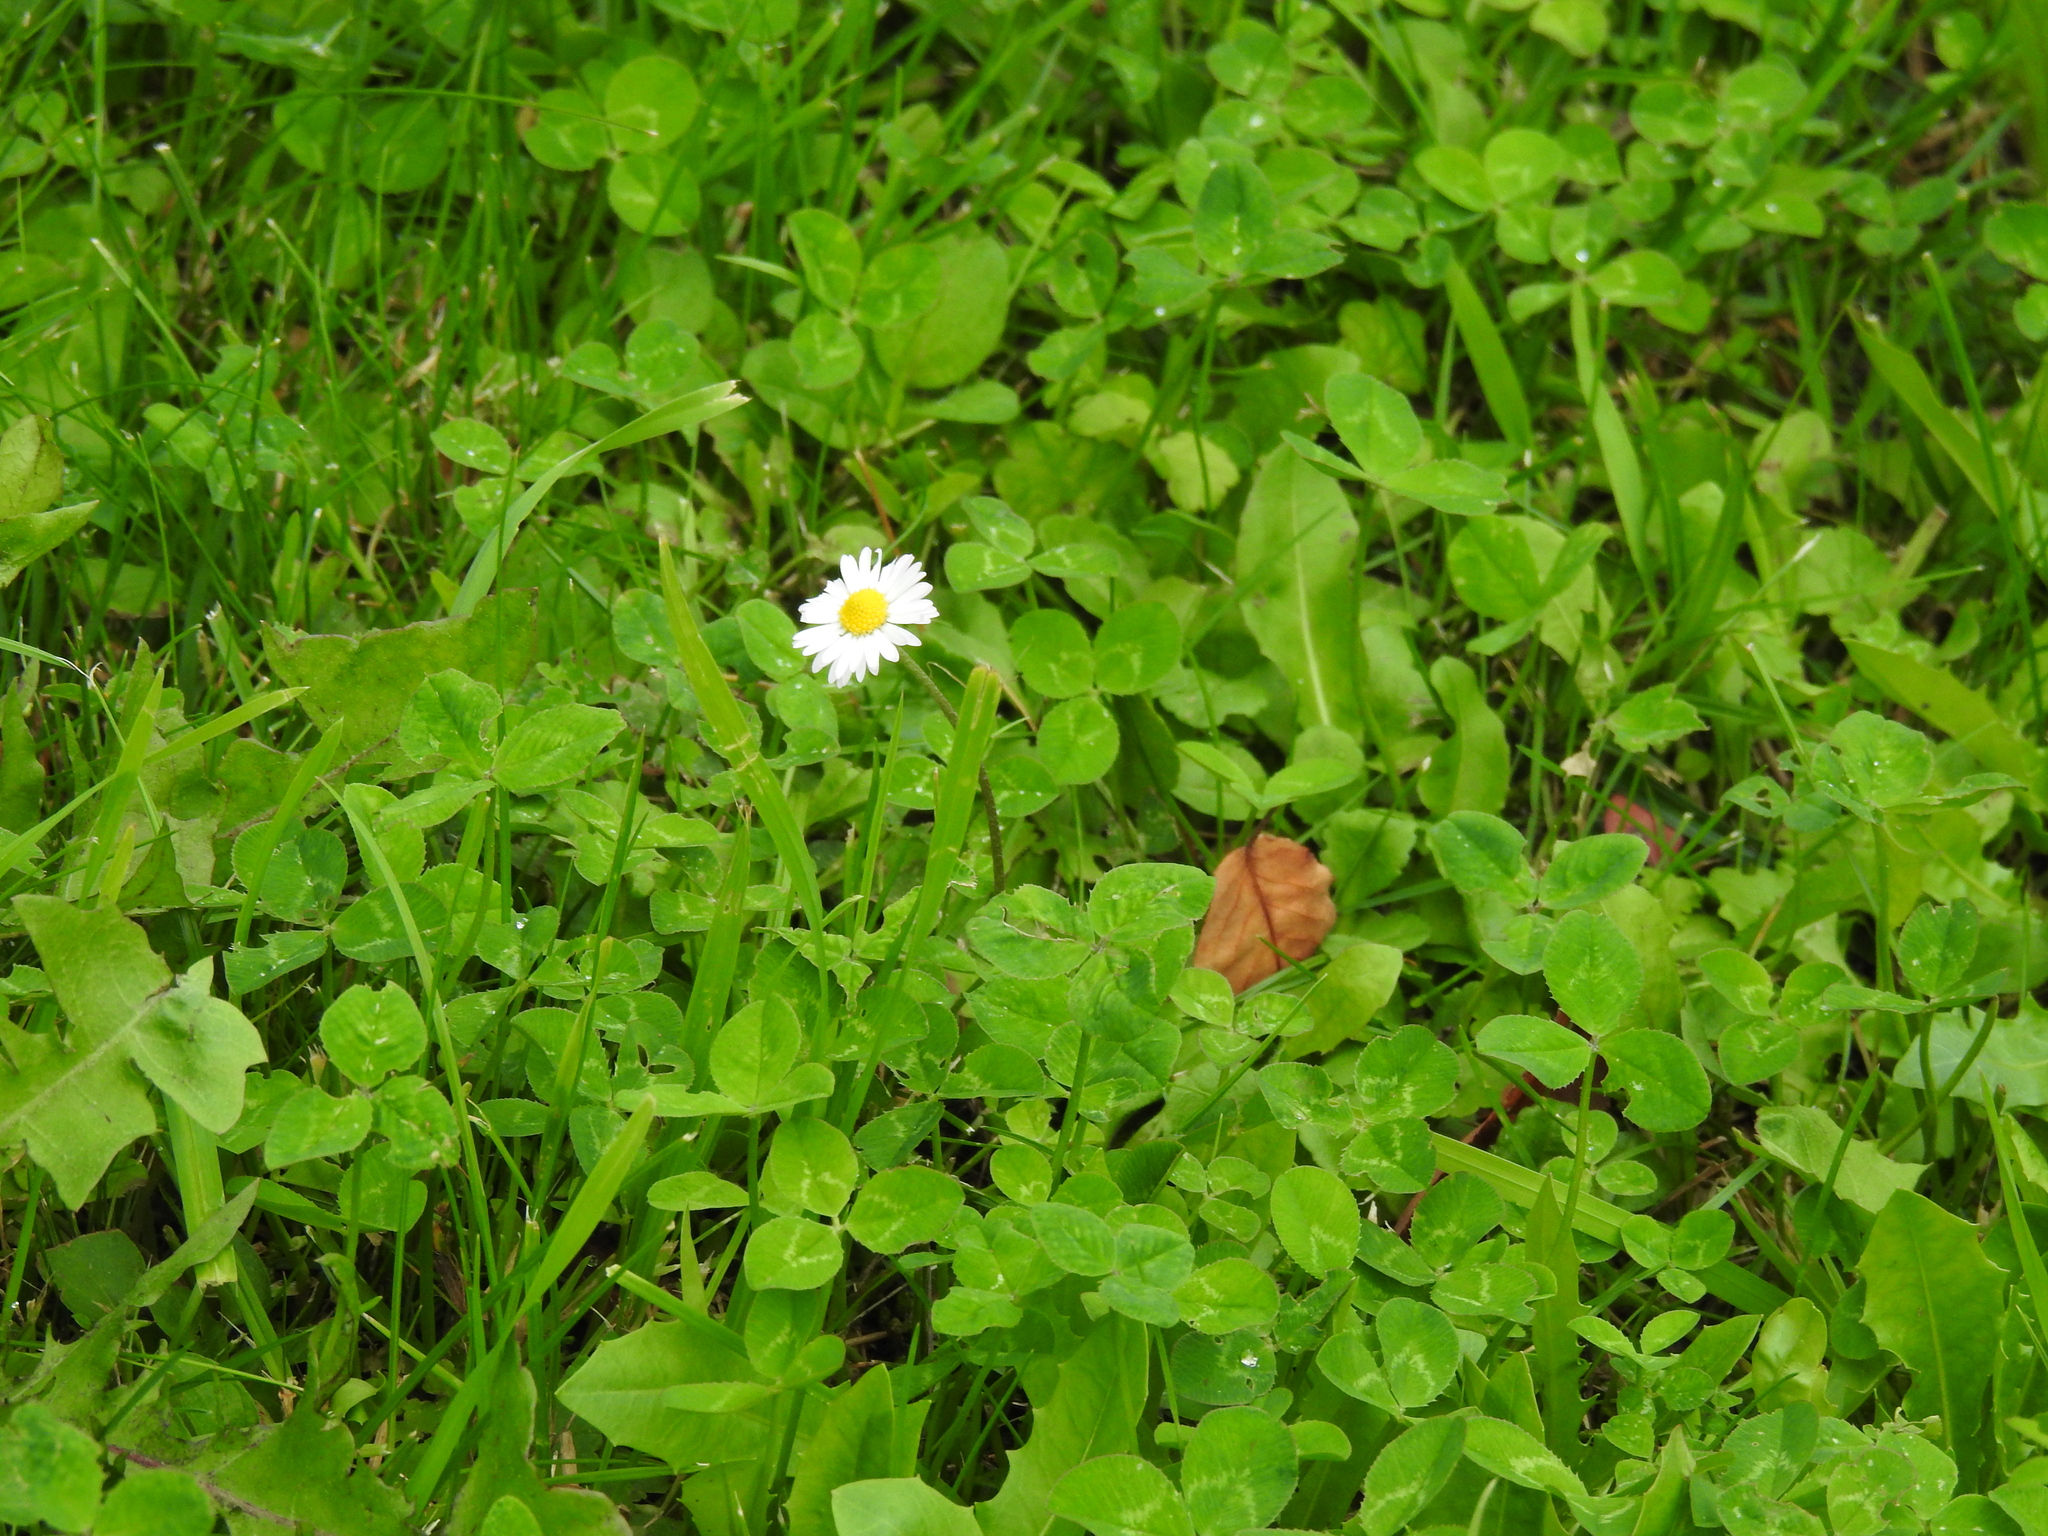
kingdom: Plantae
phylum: Tracheophyta
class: Magnoliopsida
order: Asterales
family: Asteraceae
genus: Bellis
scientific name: Bellis perennis
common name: Lawndaisy
